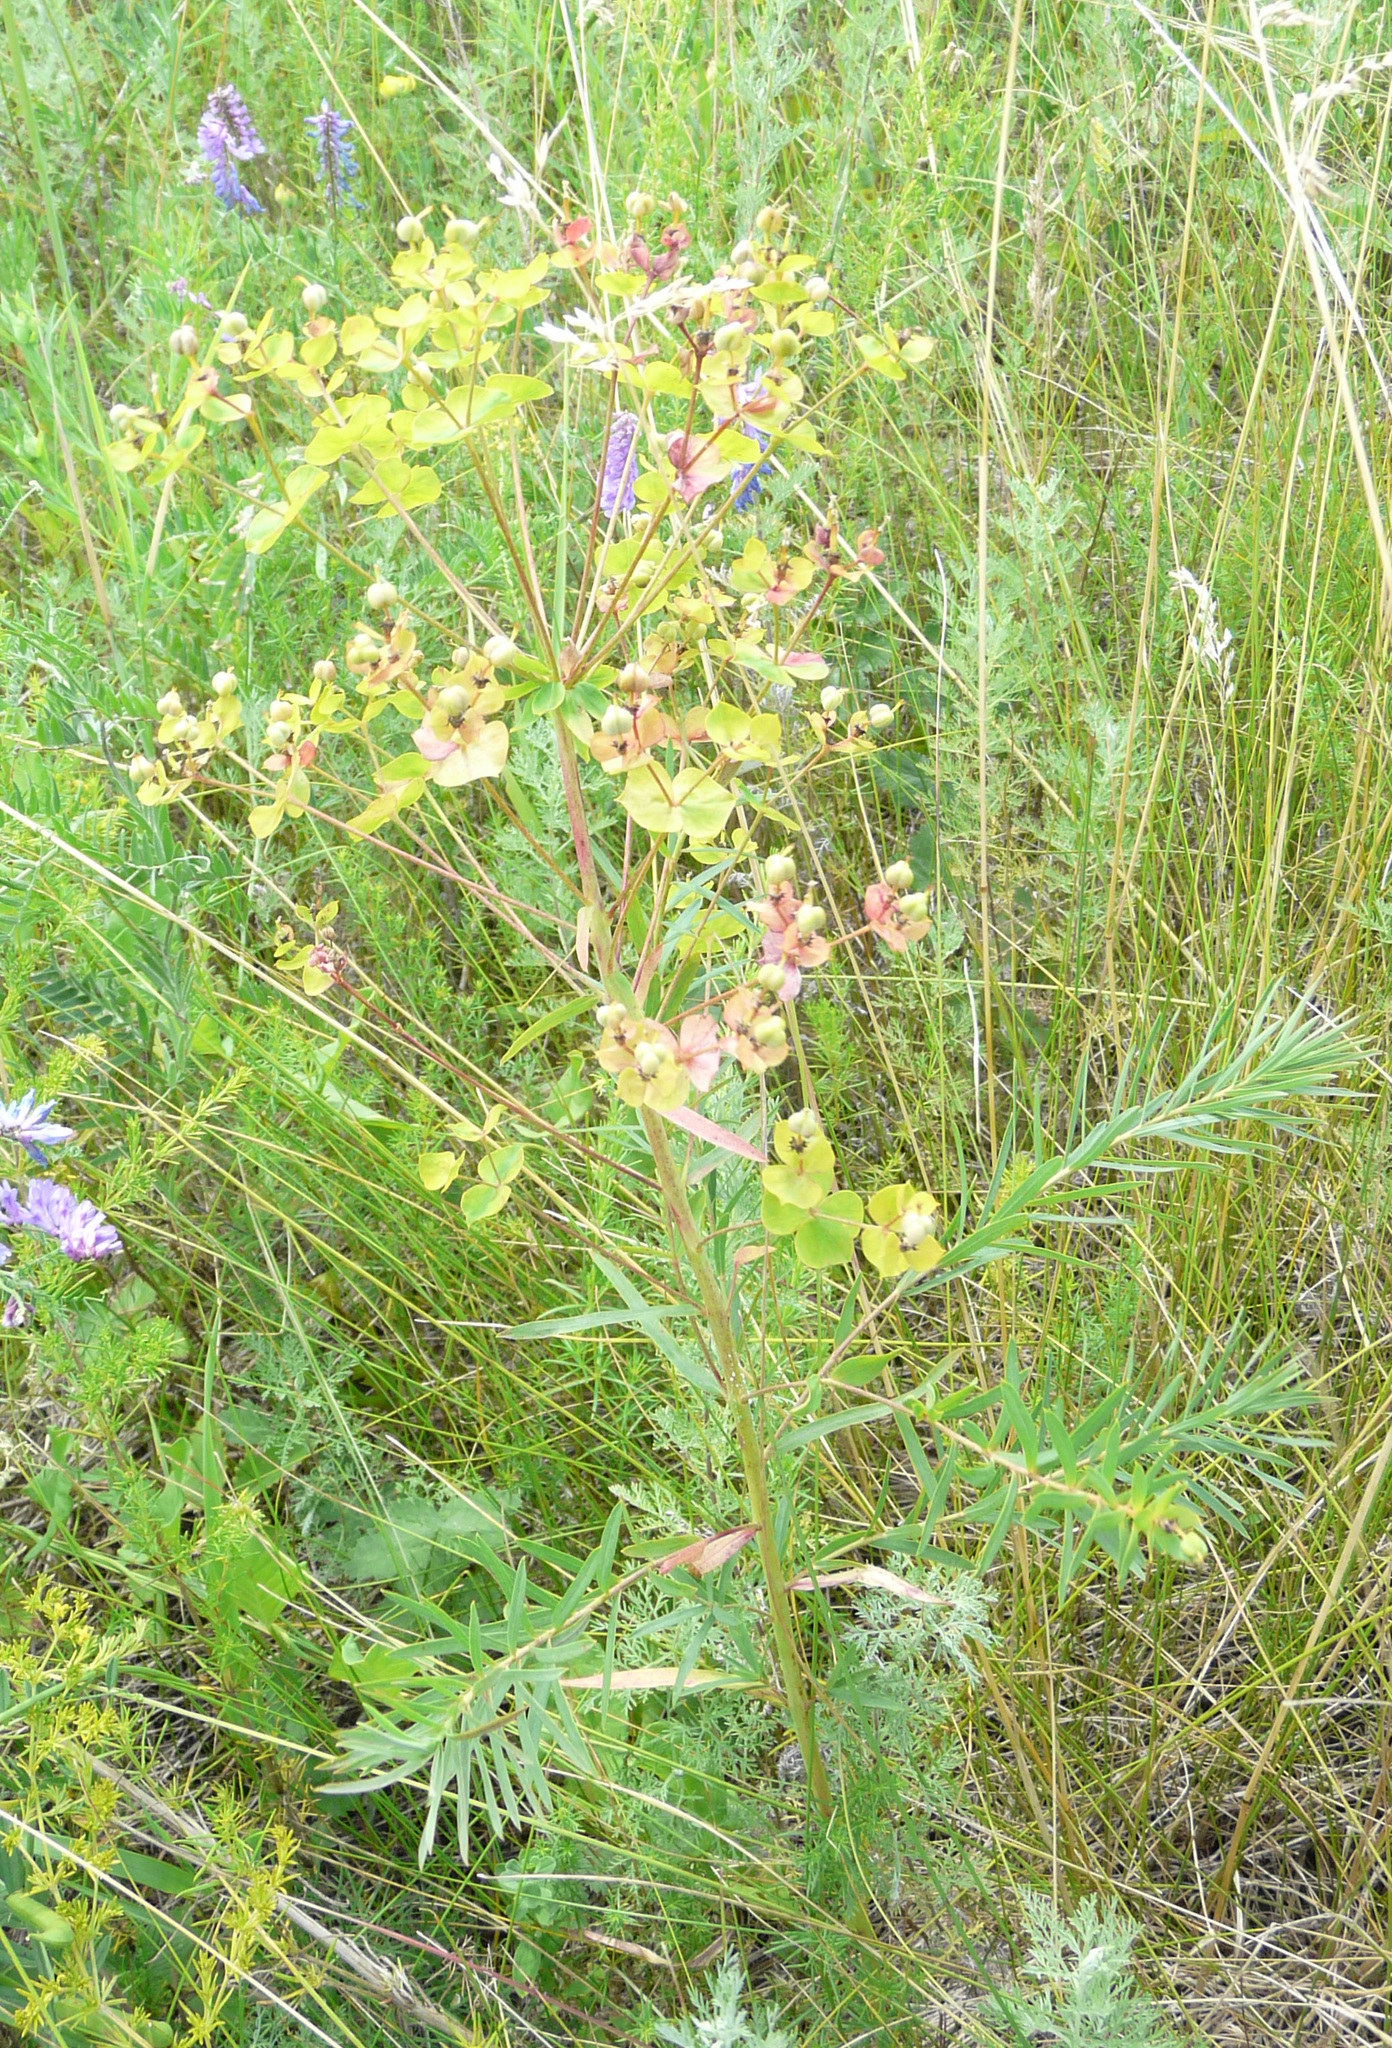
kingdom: Plantae
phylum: Tracheophyta
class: Magnoliopsida
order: Malpighiales
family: Euphorbiaceae
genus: Euphorbia
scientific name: Euphorbia virgata
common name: Leafy spurge
